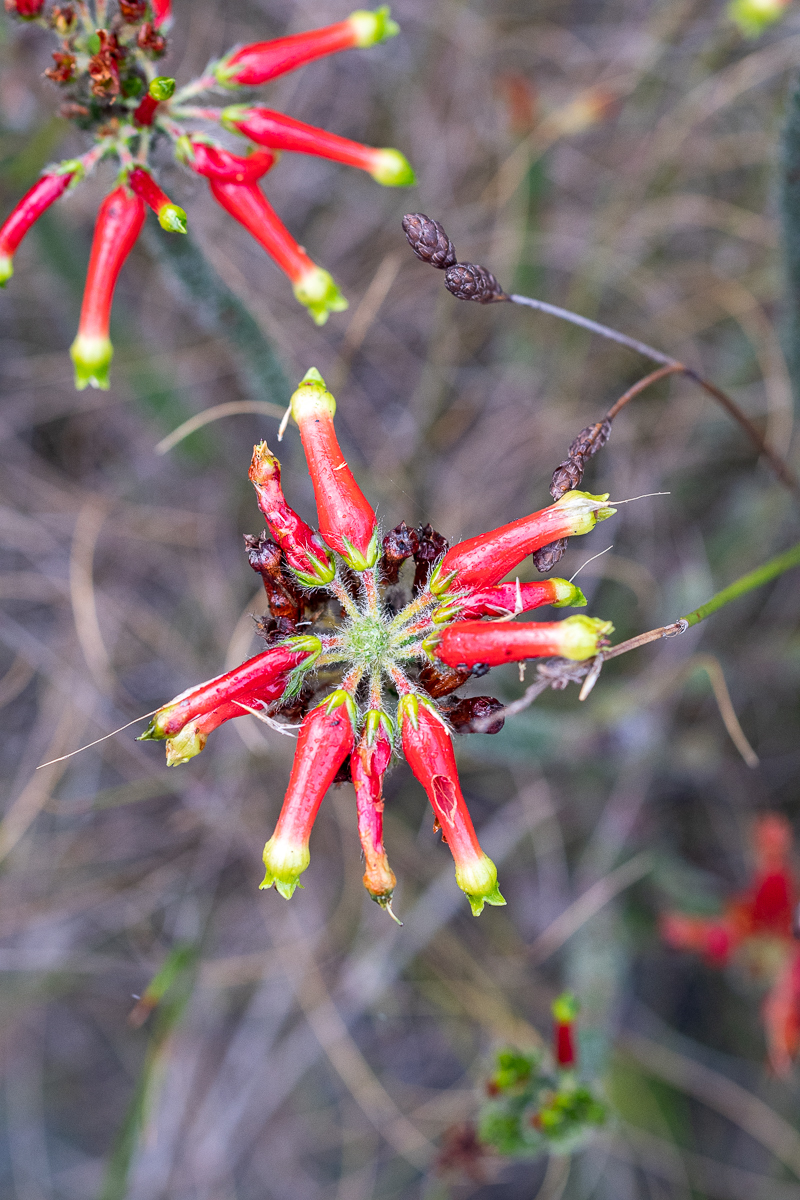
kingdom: Plantae
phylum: Tracheophyta
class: Magnoliopsida
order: Ericales
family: Ericaceae
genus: Erica
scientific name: Erica massonii
